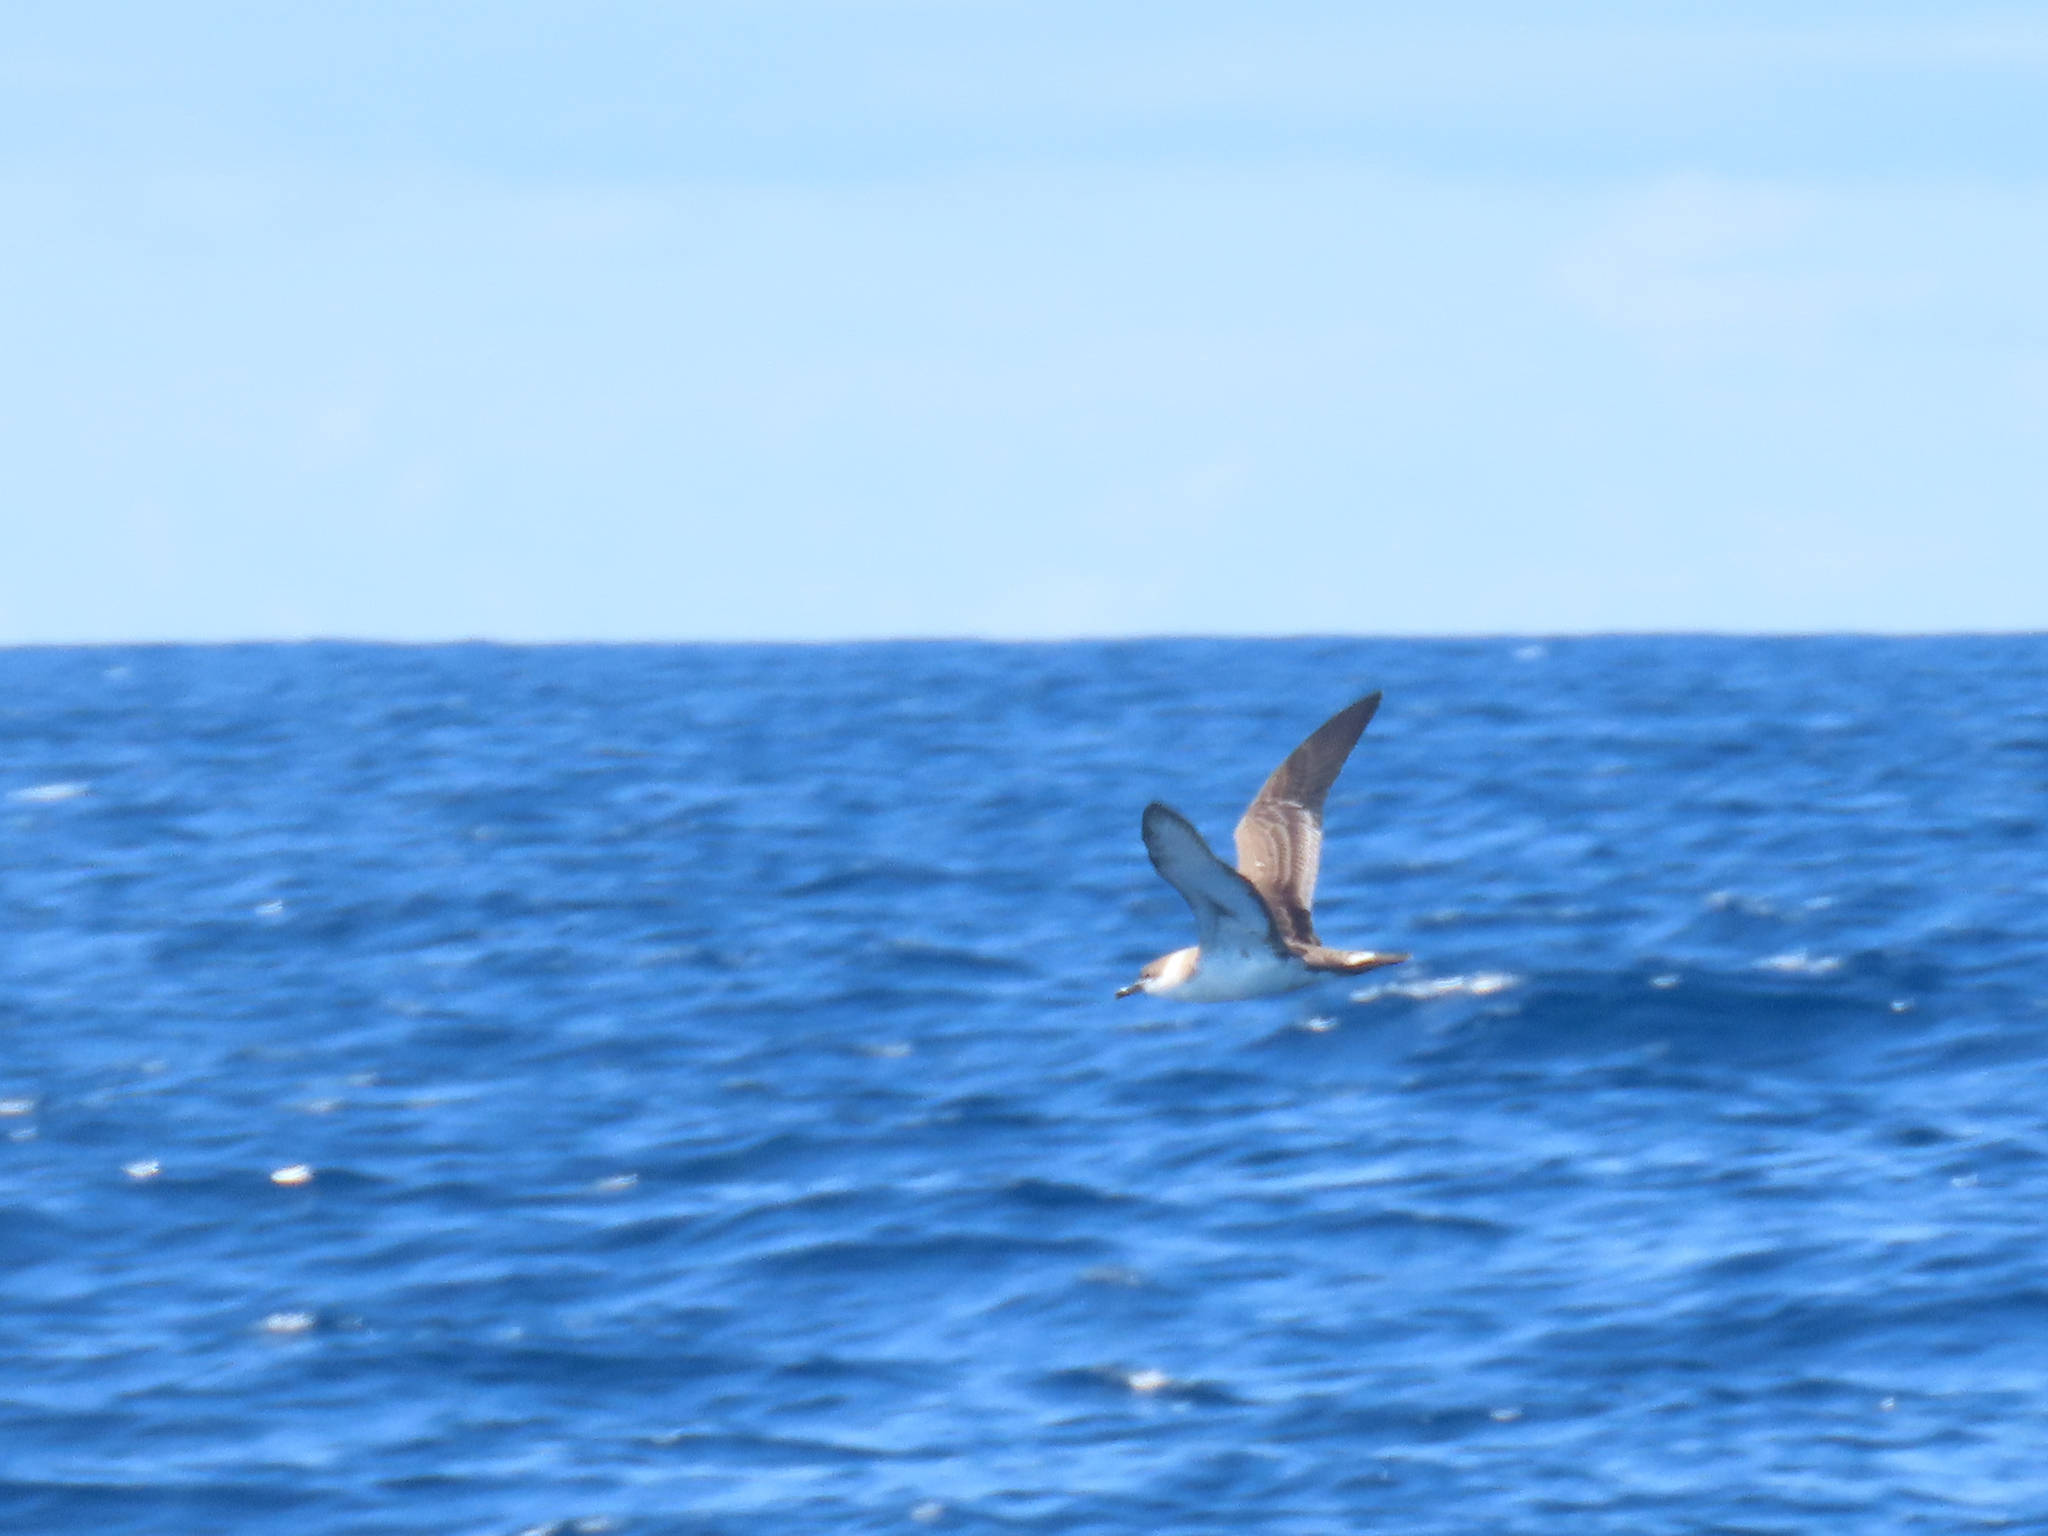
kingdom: Animalia
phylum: Chordata
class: Aves
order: Procellariiformes
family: Procellariidae
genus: Puffinus
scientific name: Puffinus gravis
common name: Great shearwater
